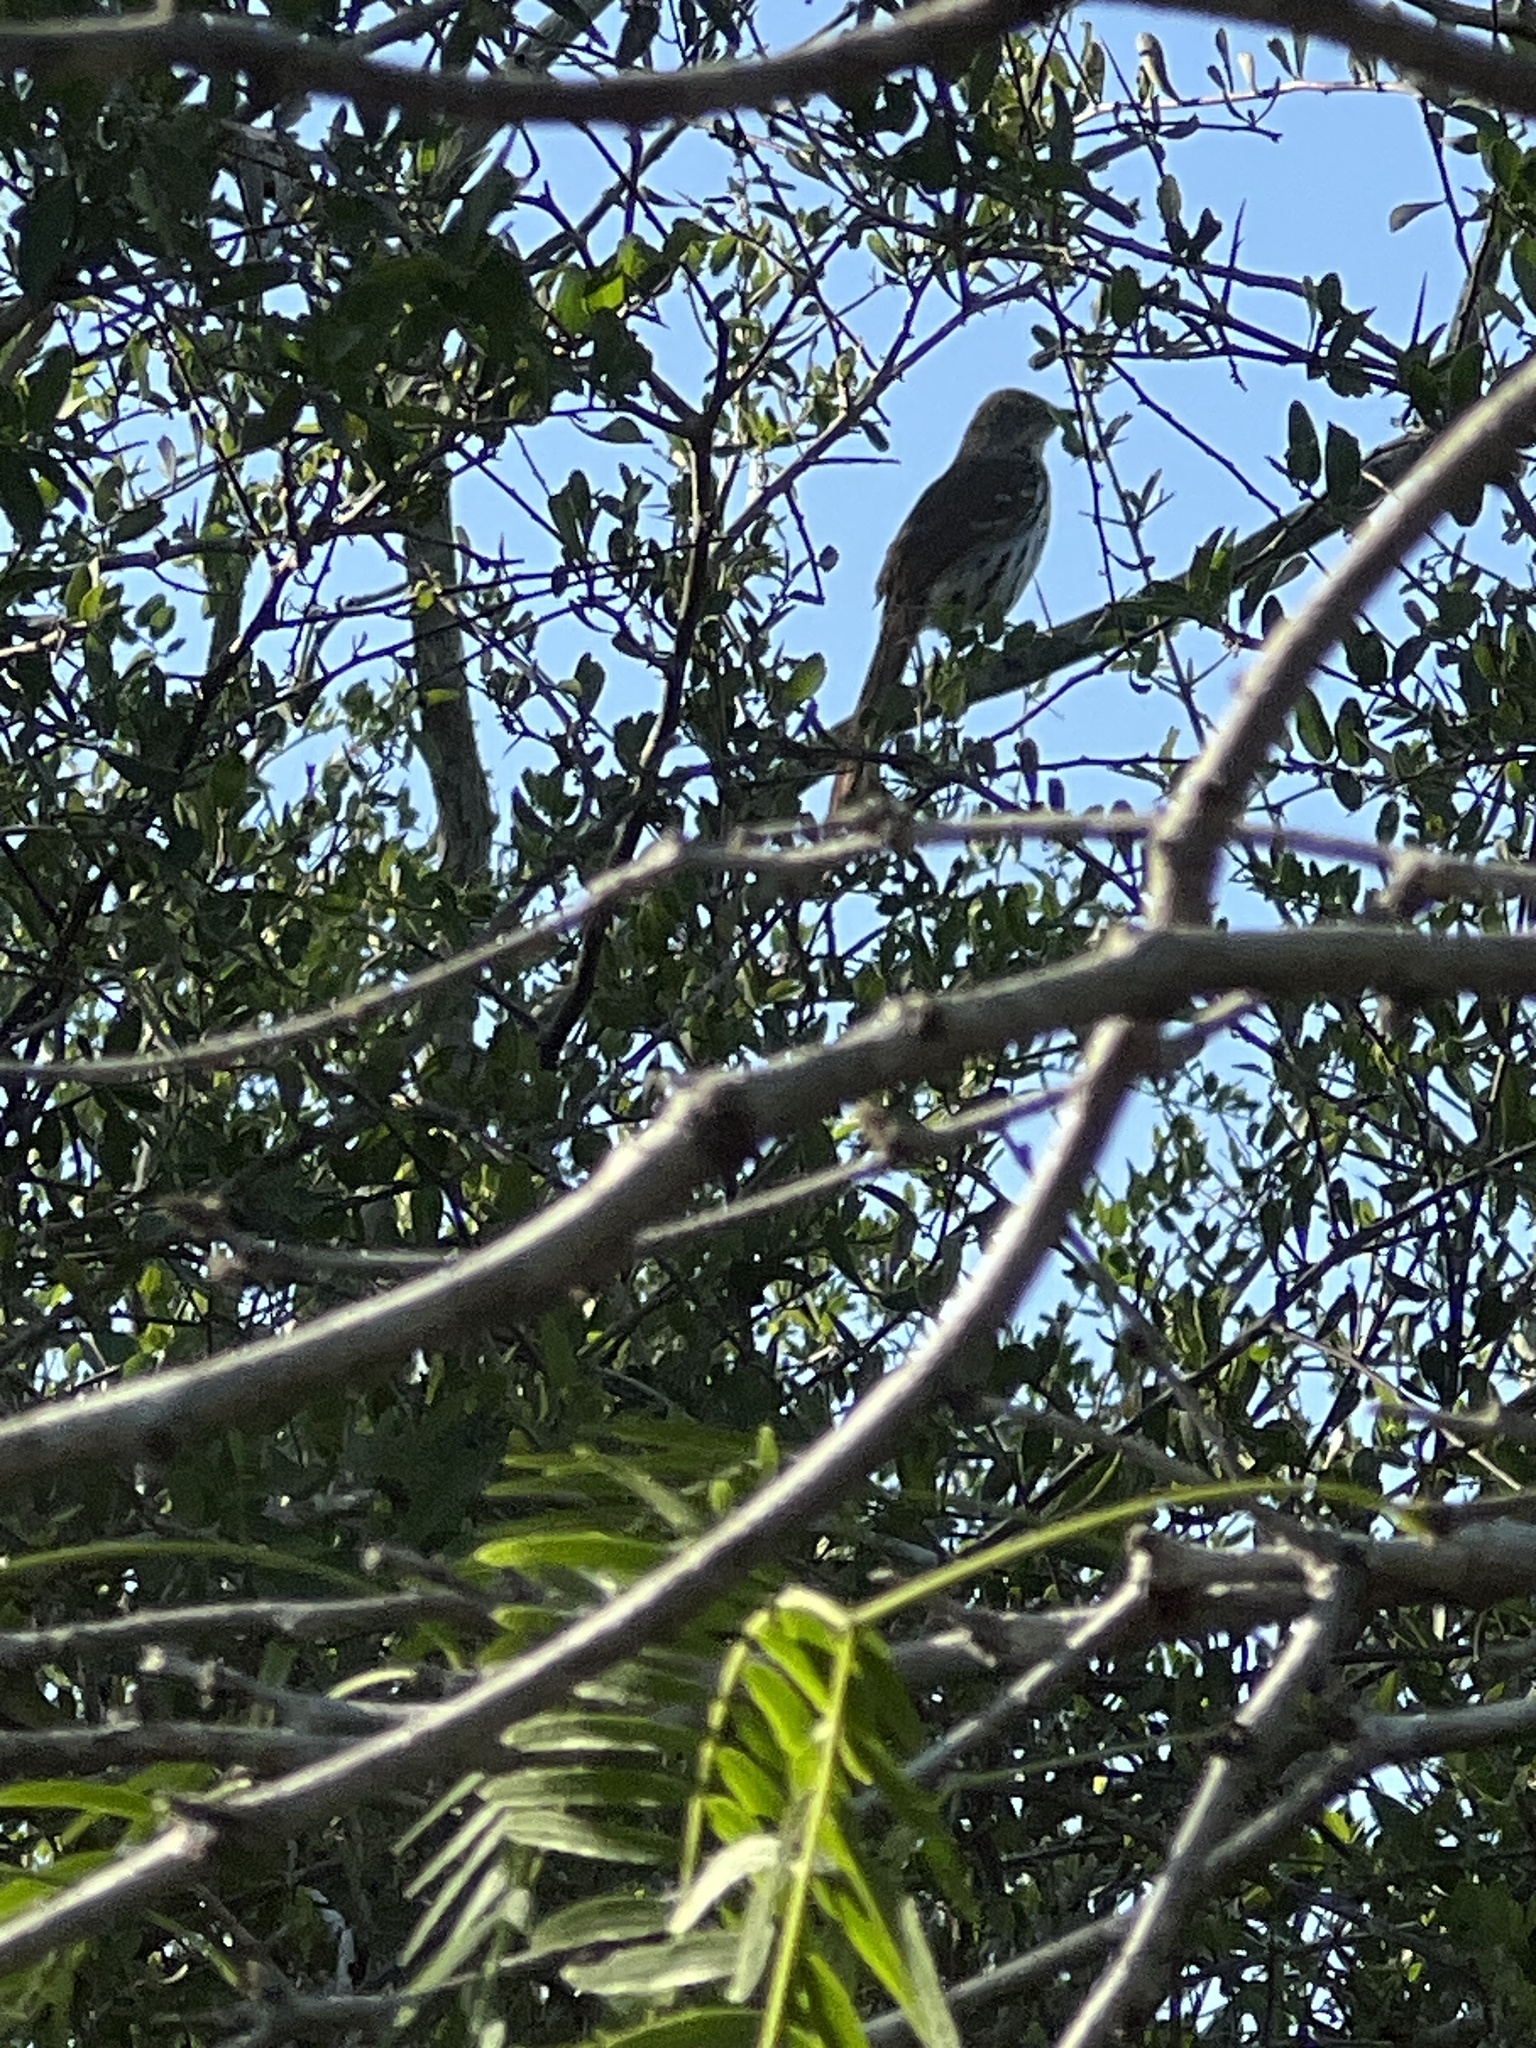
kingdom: Animalia
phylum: Chordata
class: Aves
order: Passeriformes
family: Mimidae
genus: Toxostoma
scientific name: Toxostoma longirostre
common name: Long-billed thrasher
